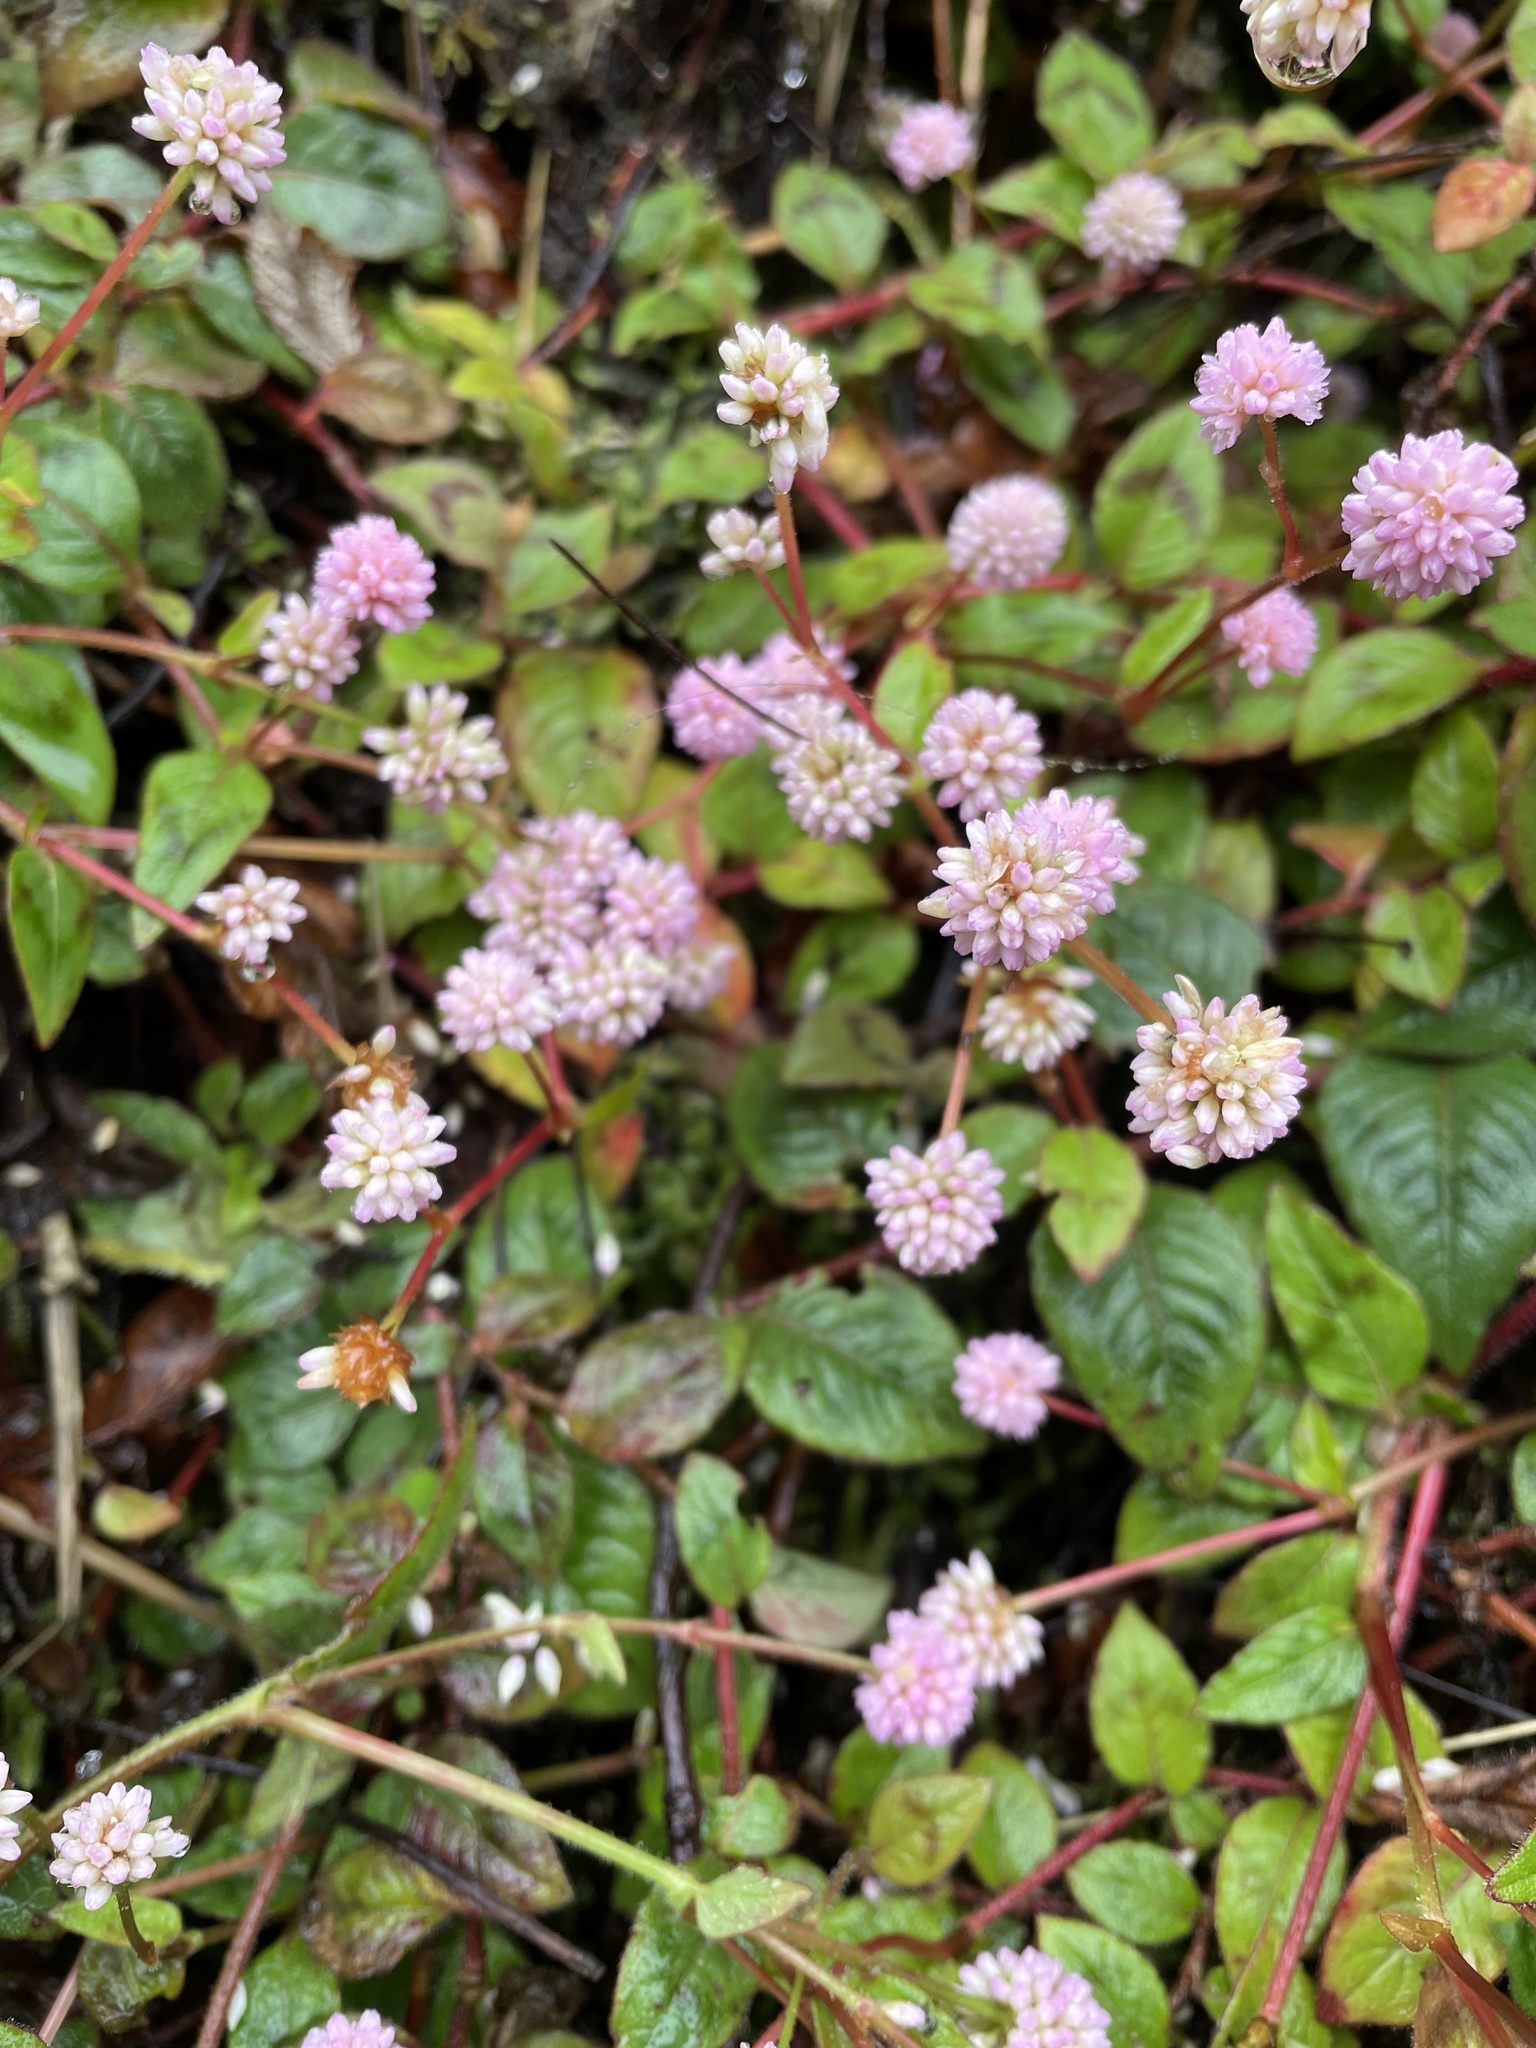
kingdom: Plantae
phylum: Tracheophyta
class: Magnoliopsida
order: Caryophyllales
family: Polygonaceae
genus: Persicaria
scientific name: Persicaria capitata
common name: Pinkhead smartweed
